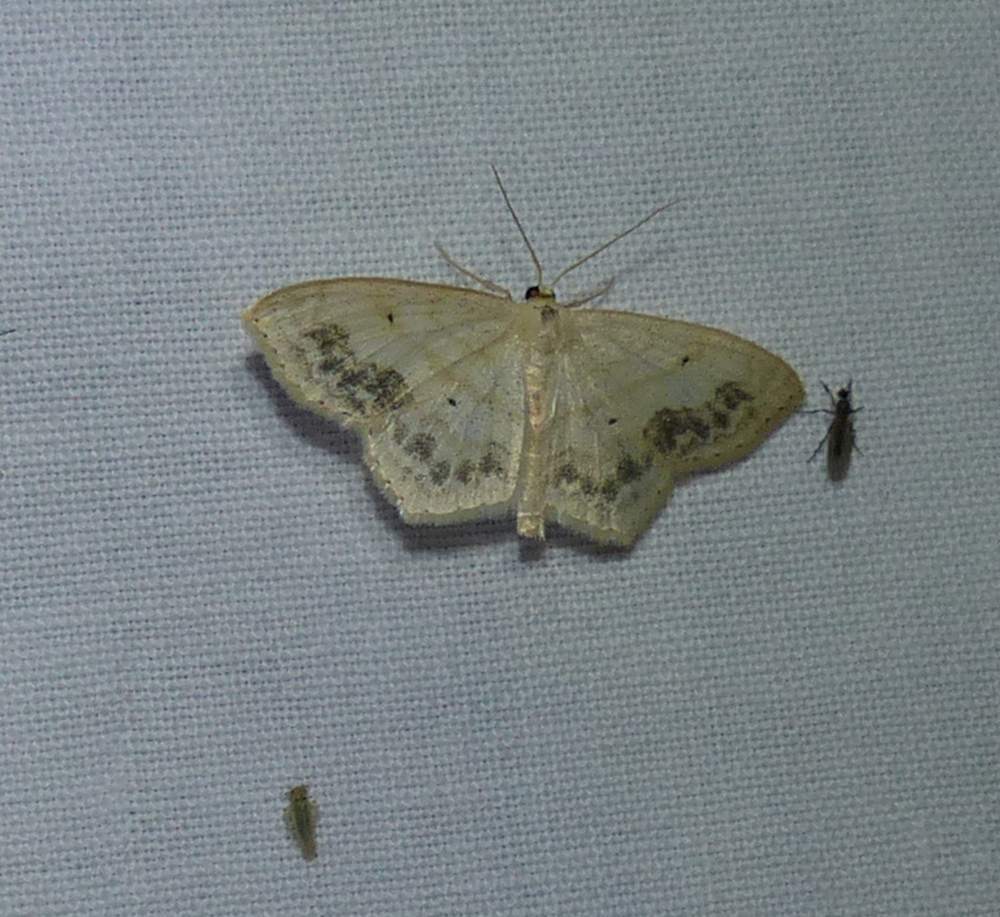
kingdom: Animalia
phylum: Arthropoda
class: Insecta
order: Lepidoptera
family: Geometridae
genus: Scopula
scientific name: Scopula limboundata
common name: Large lace border
